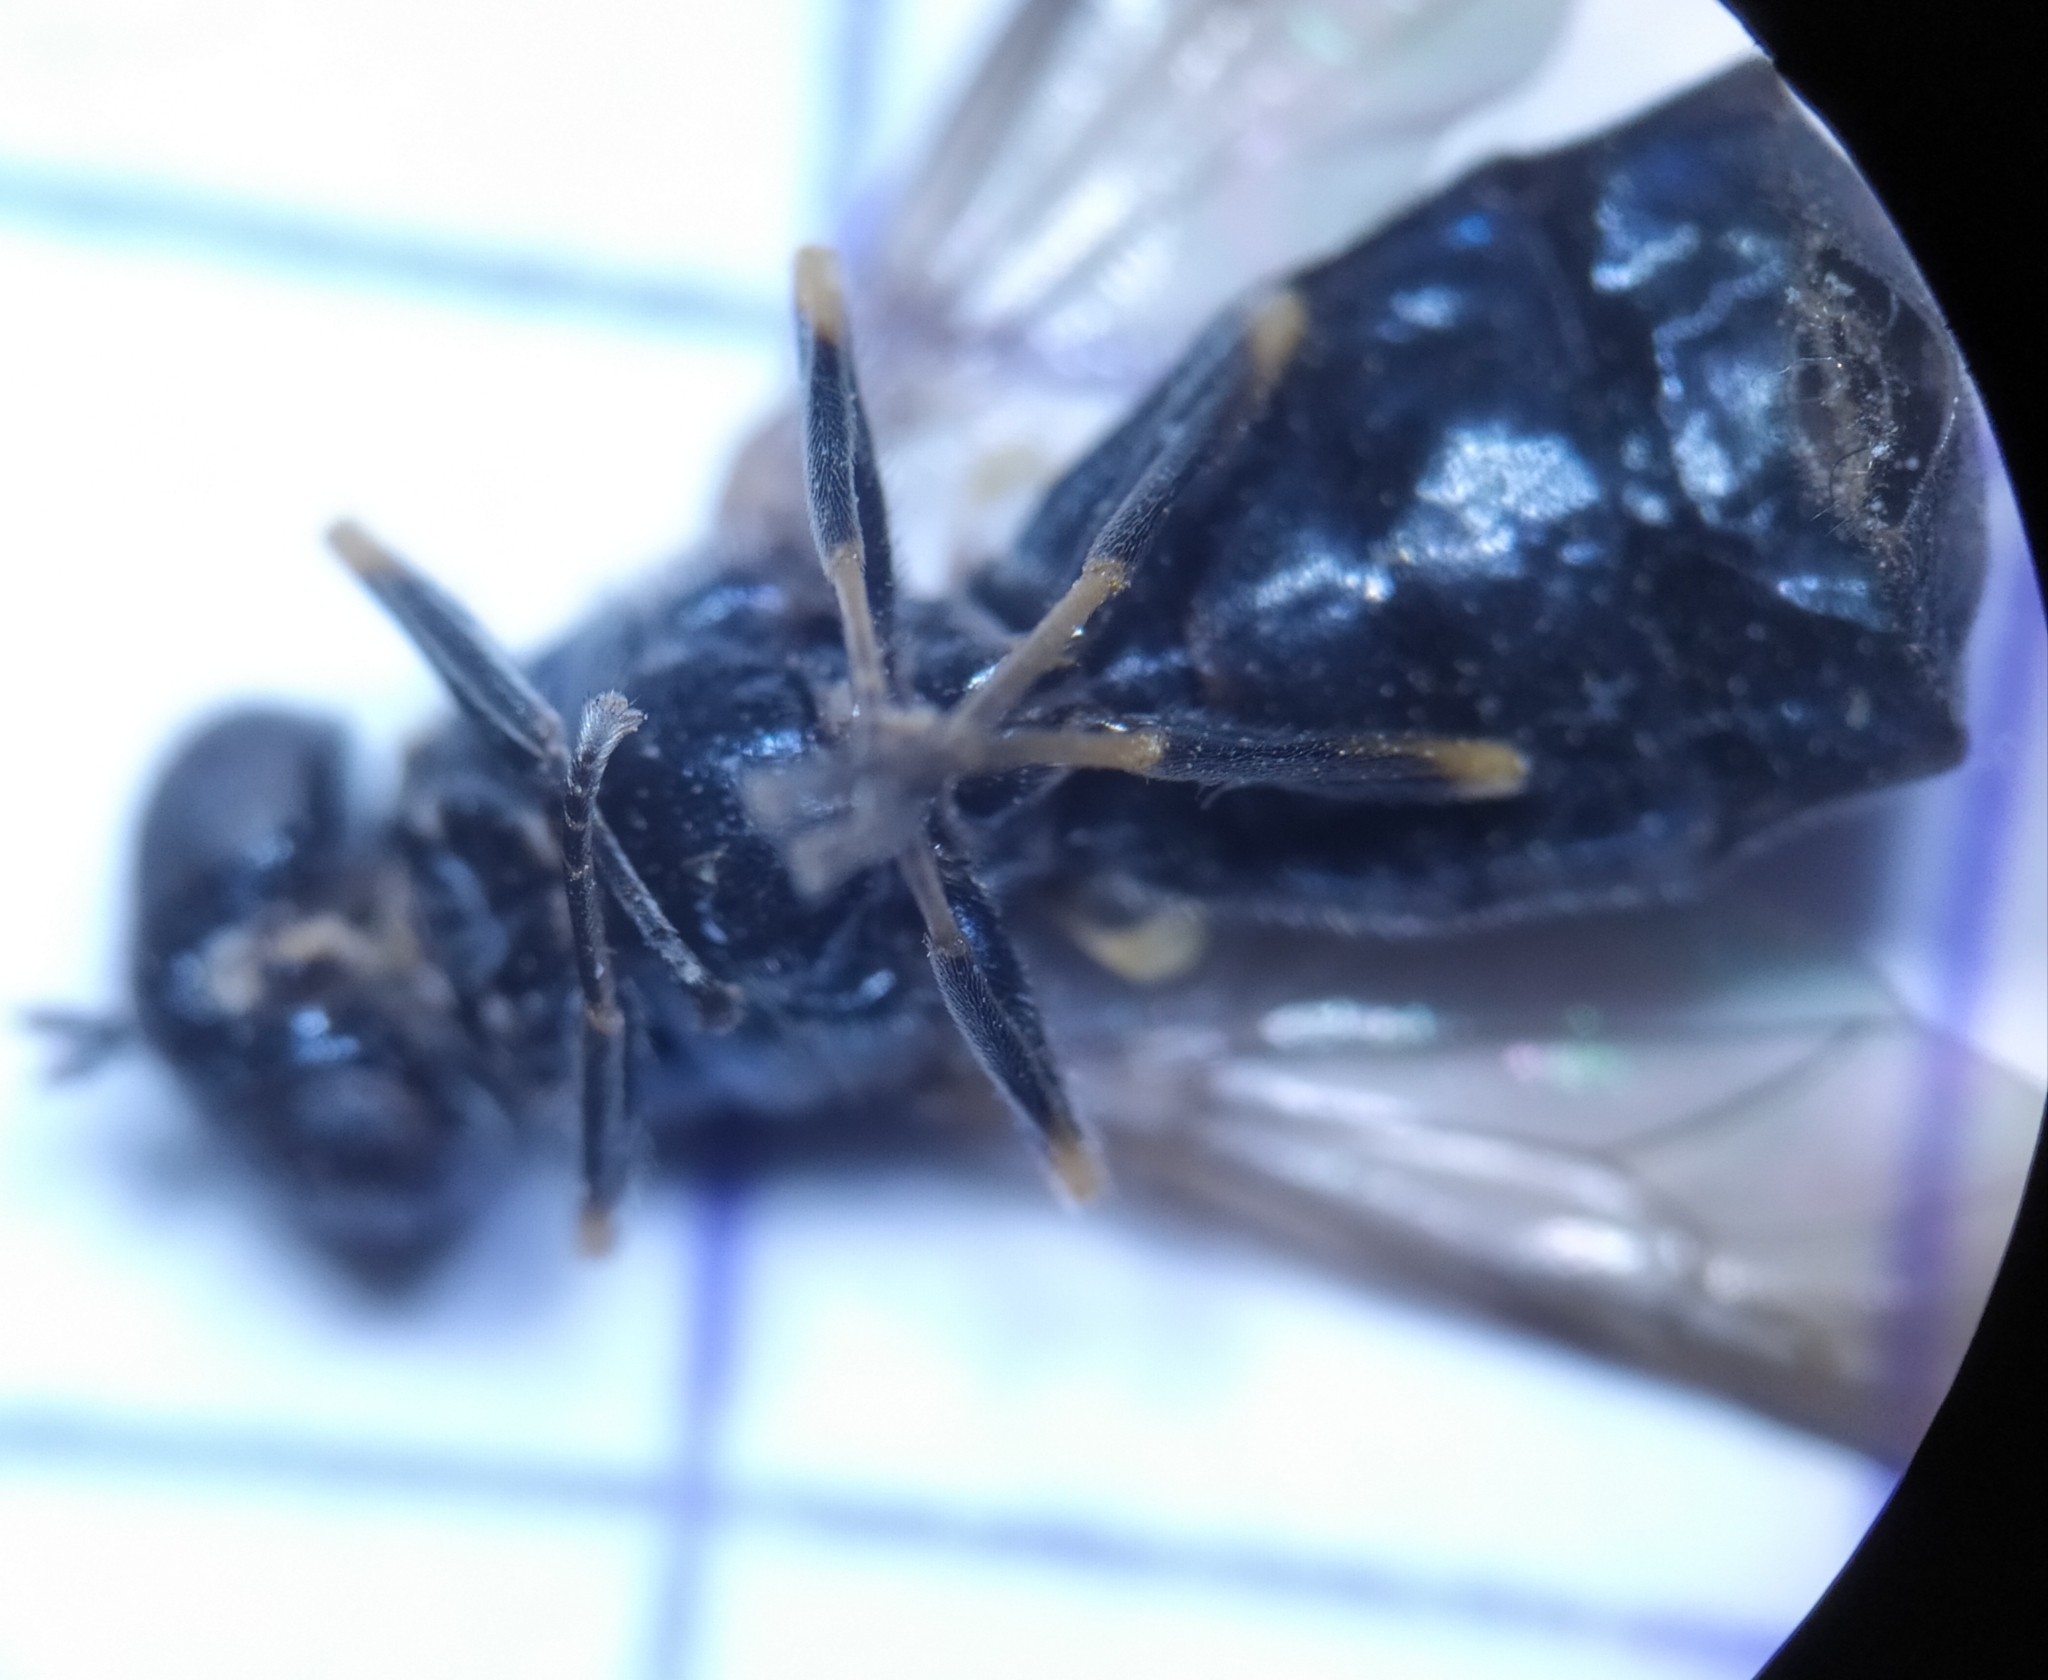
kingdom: Animalia
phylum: Arthropoda
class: Insecta
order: Diptera
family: Stratiomyidae
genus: Chloromyia
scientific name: Chloromyia speciosa
